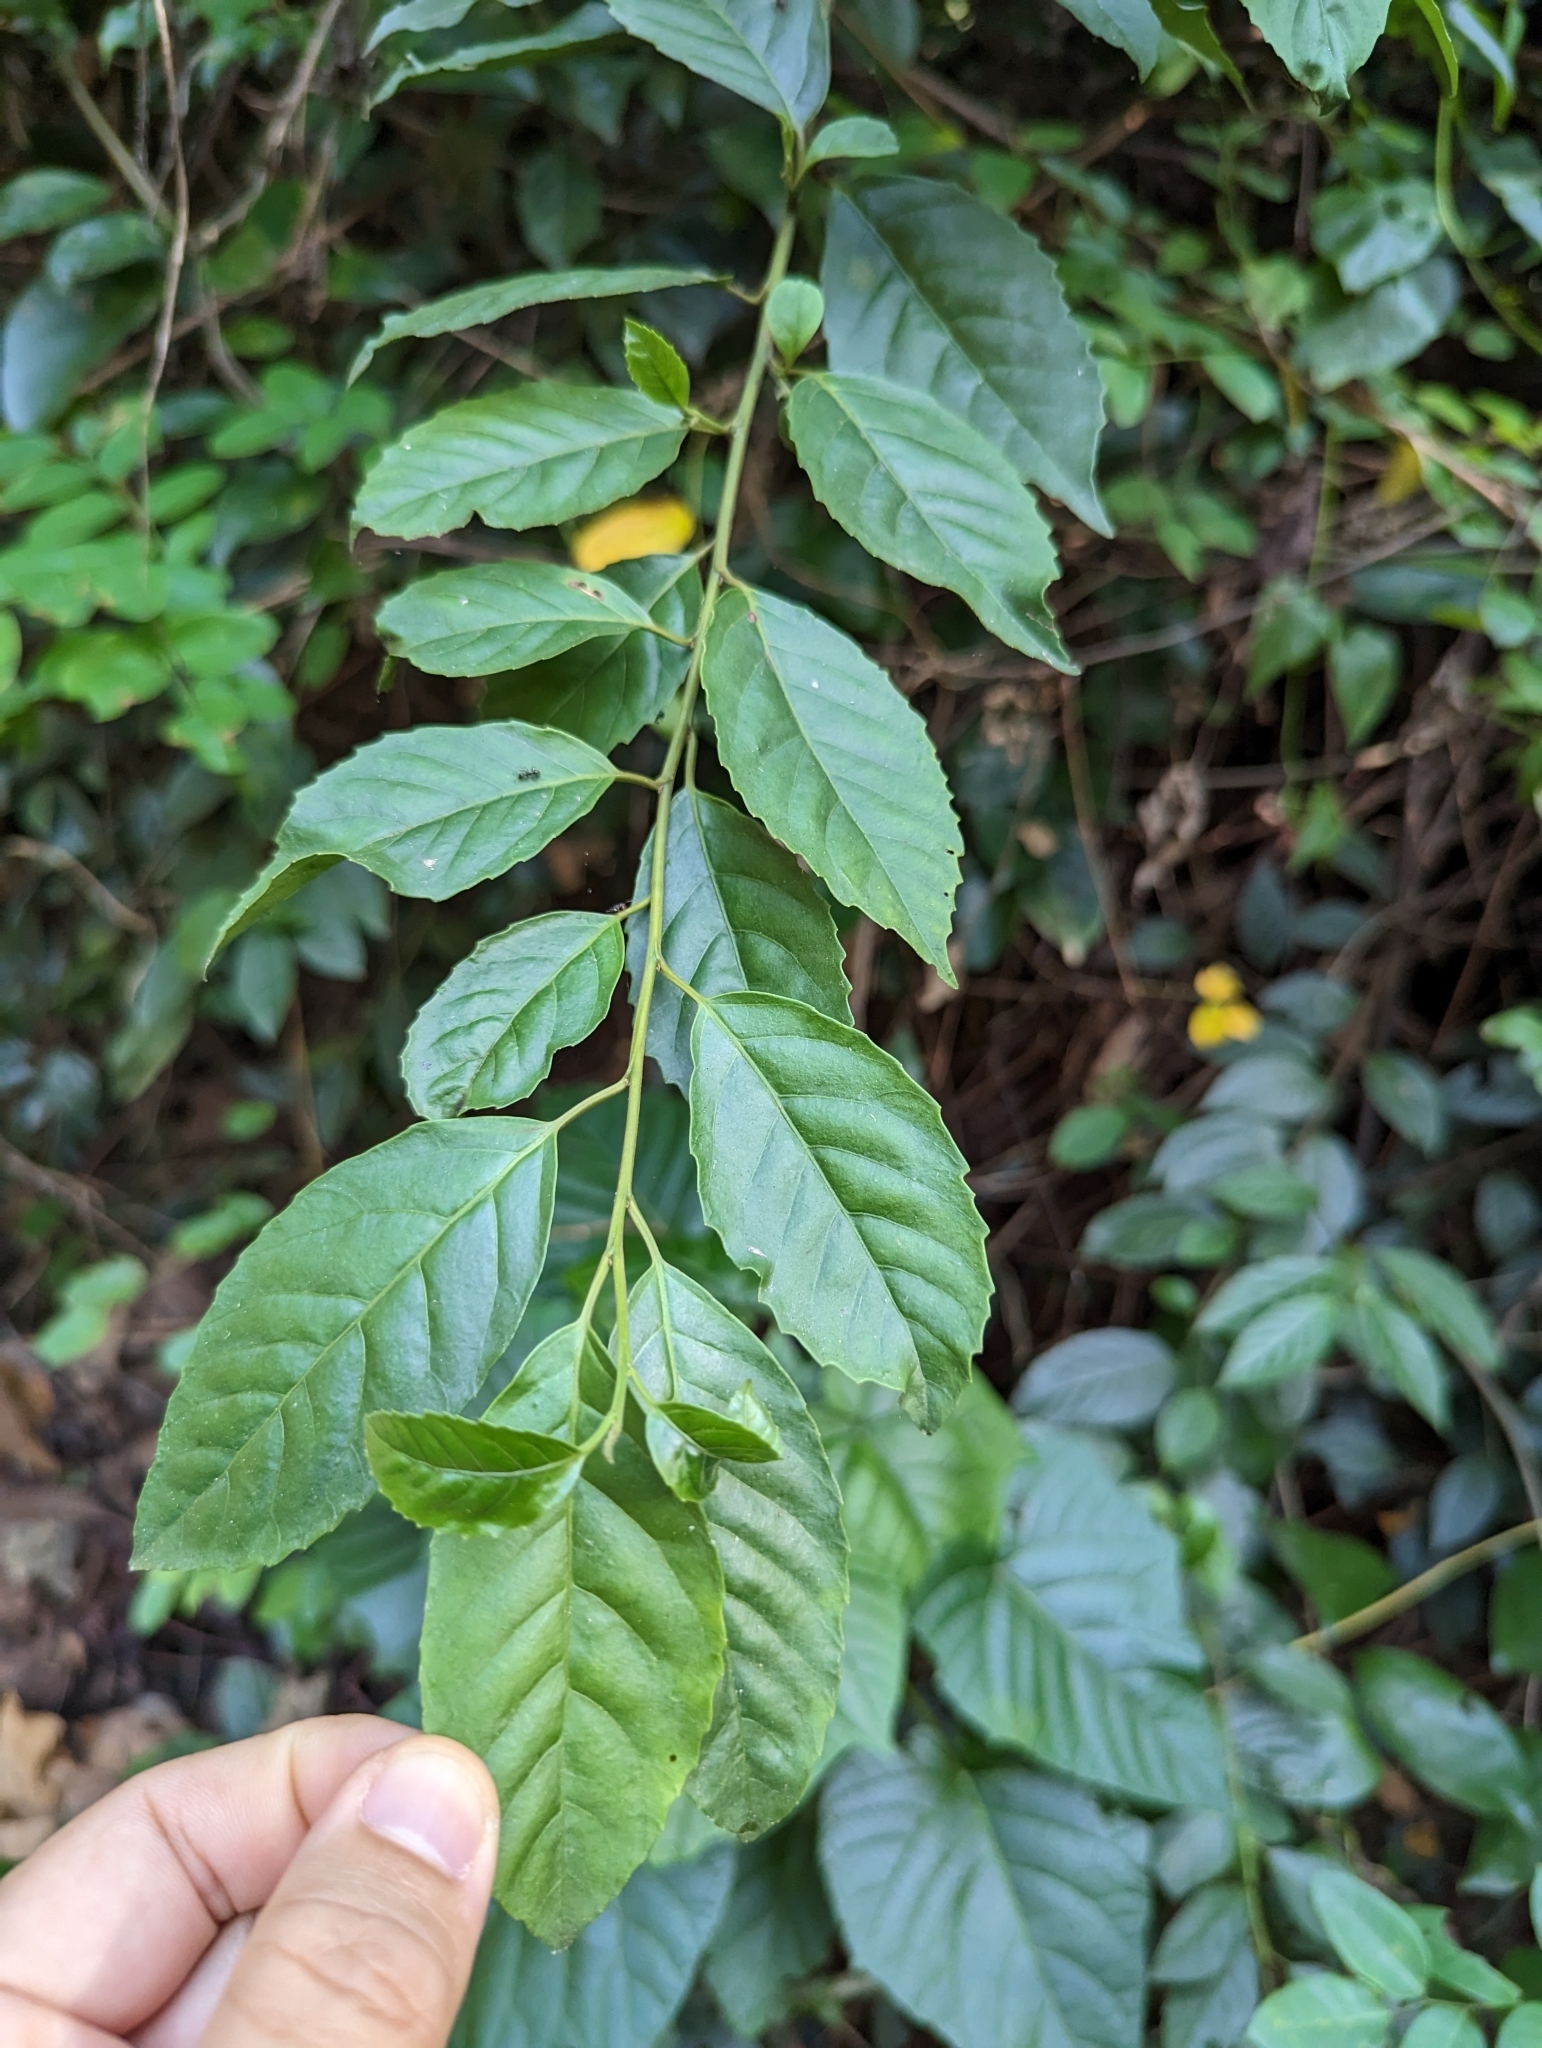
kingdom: Plantae
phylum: Tracheophyta
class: Magnoliopsida
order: Ericales
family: Primulaceae
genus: Maesa
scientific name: Maesa perlaria
